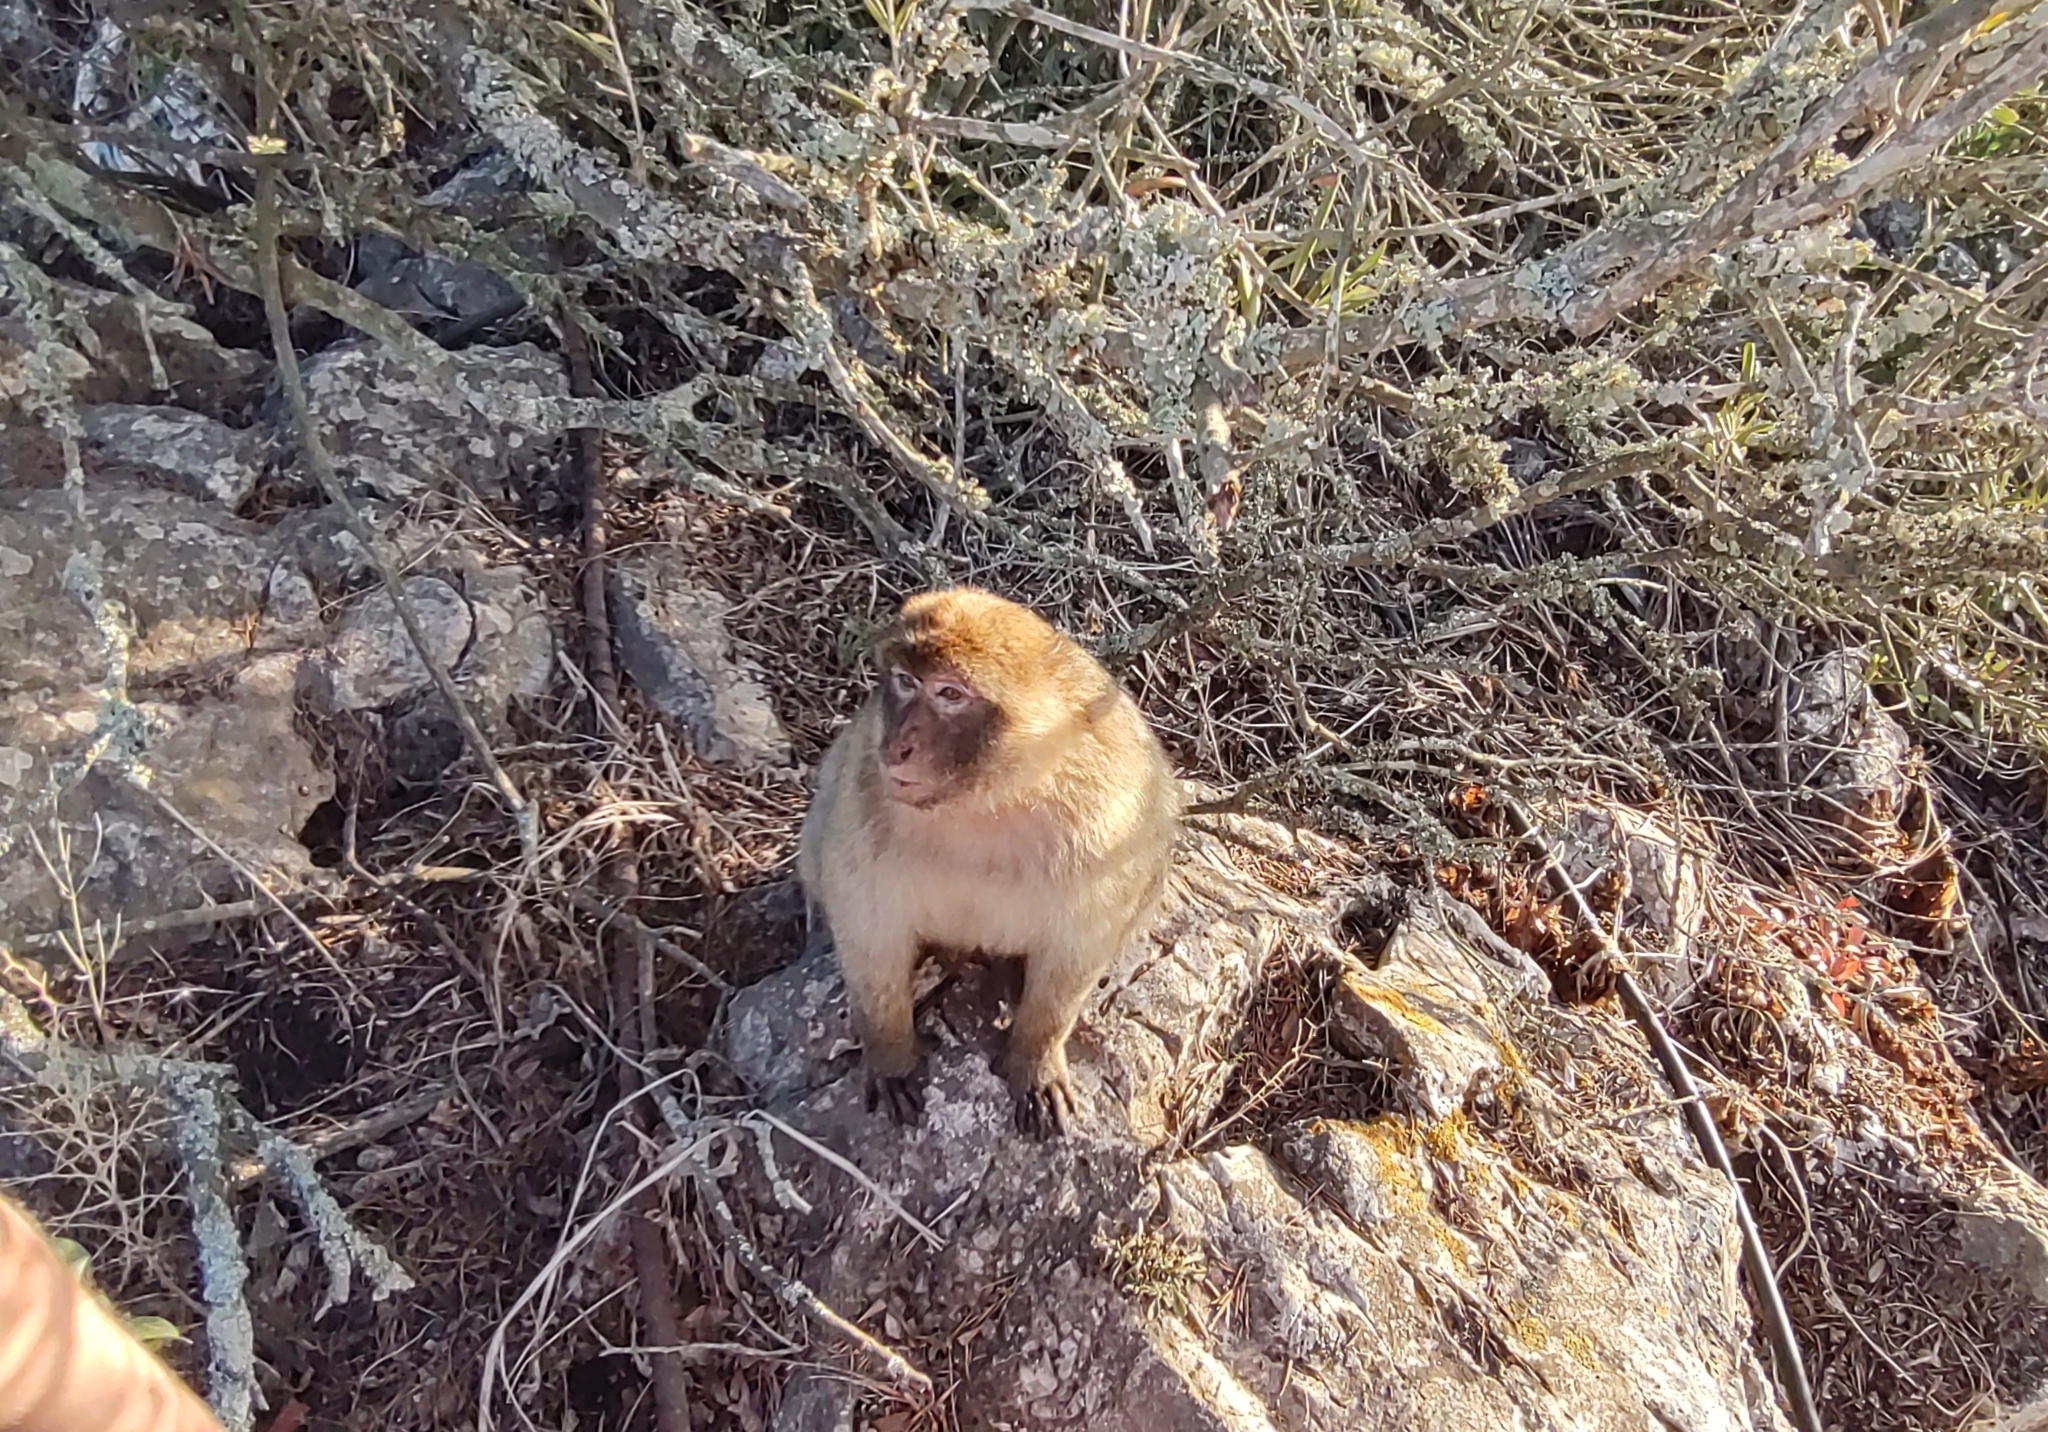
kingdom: Animalia
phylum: Chordata
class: Mammalia
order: Primates
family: Cercopithecidae
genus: Macaca
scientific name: Macaca sylvanus
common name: Barbary macaque
